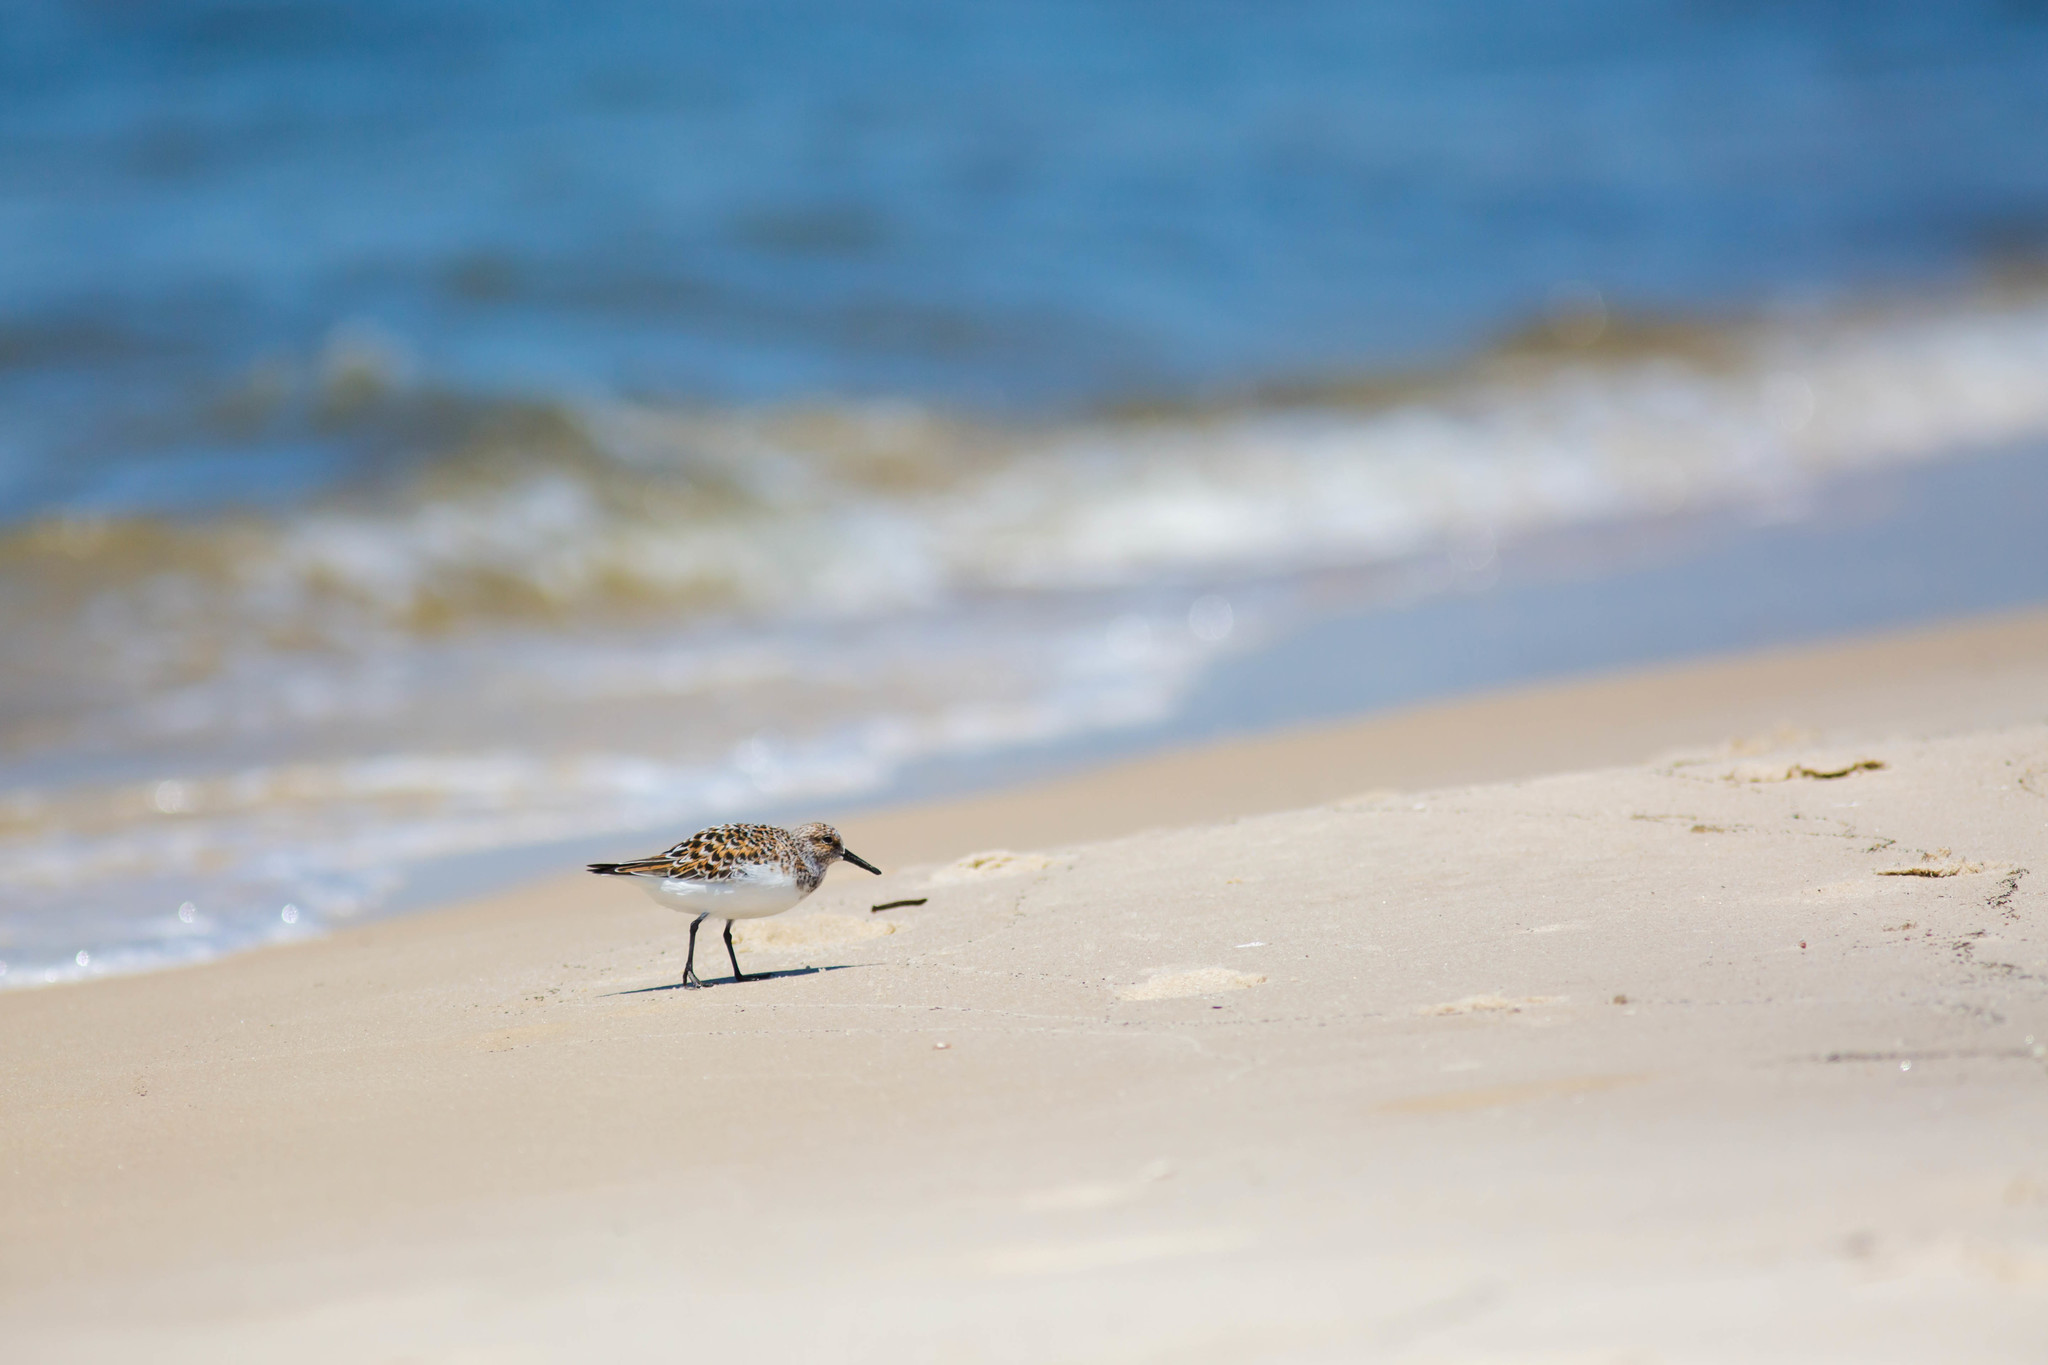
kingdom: Animalia
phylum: Chordata
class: Aves
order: Charadriiformes
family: Scolopacidae
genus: Calidris
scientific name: Calidris alba
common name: Sanderling
